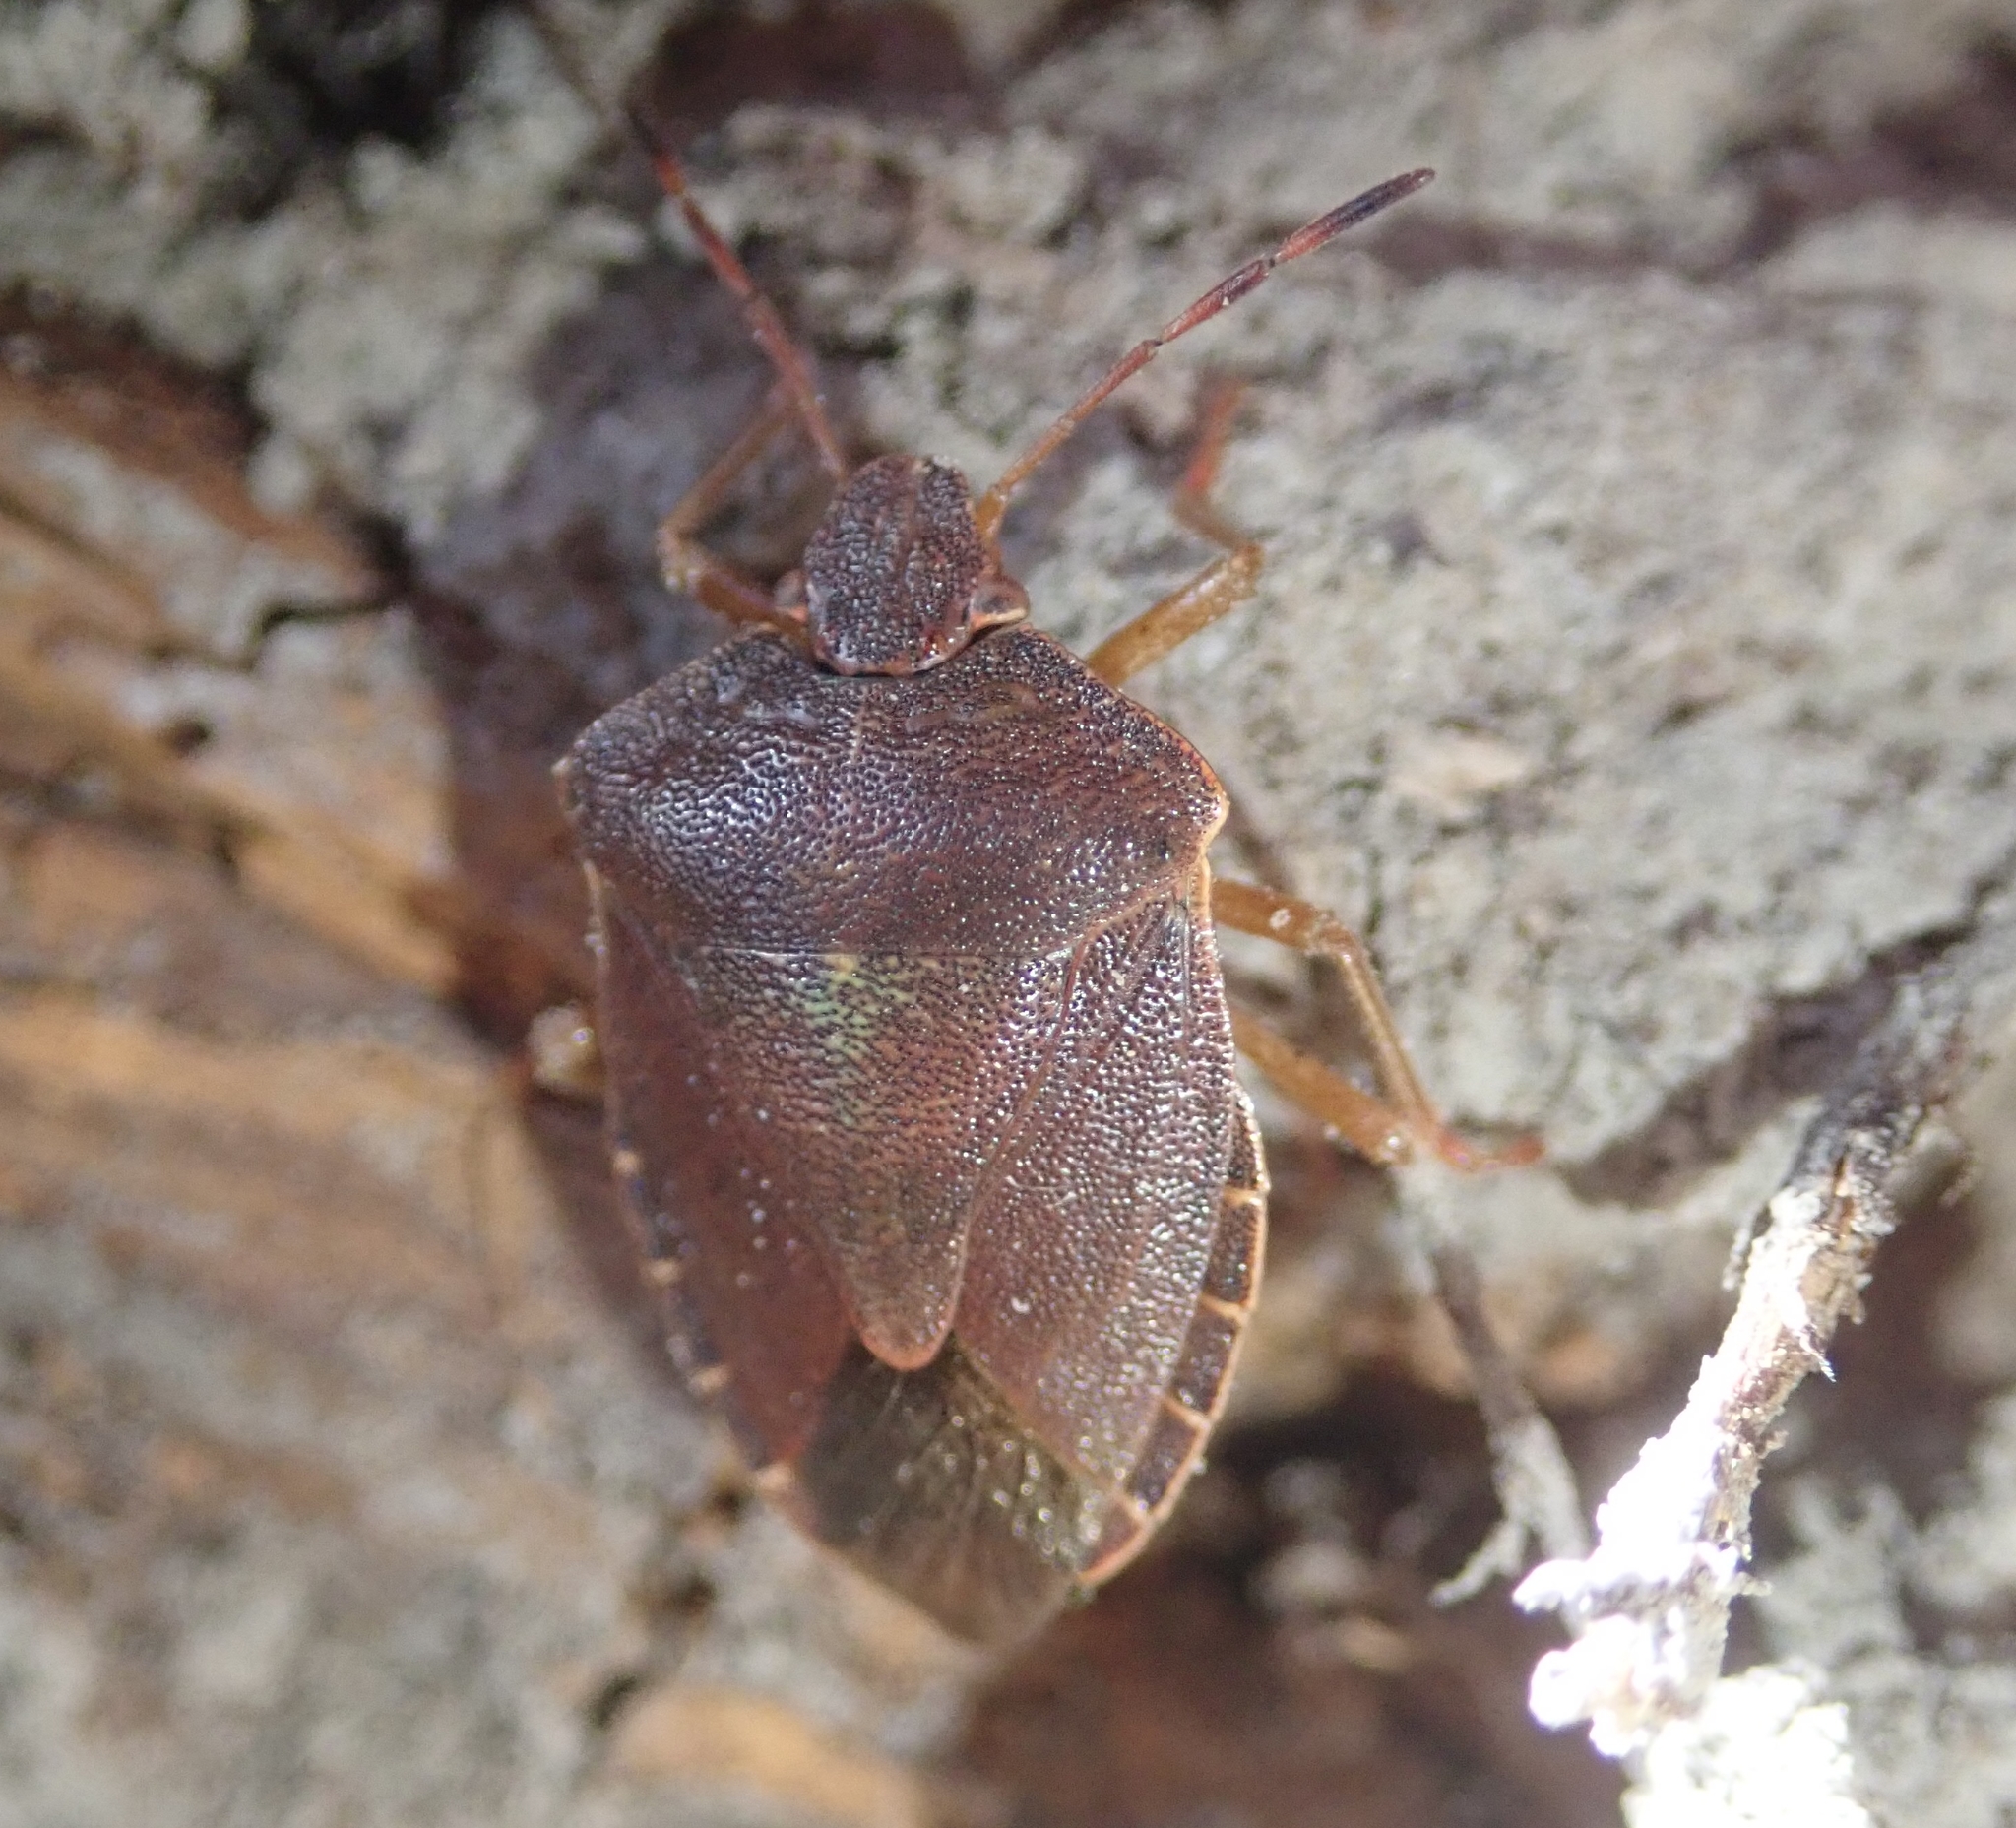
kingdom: Animalia
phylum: Arthropoda
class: Insecta
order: Hemiptera
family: Pentatomidae
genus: Palomena
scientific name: Palomena prasina
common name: Green shieldbug
